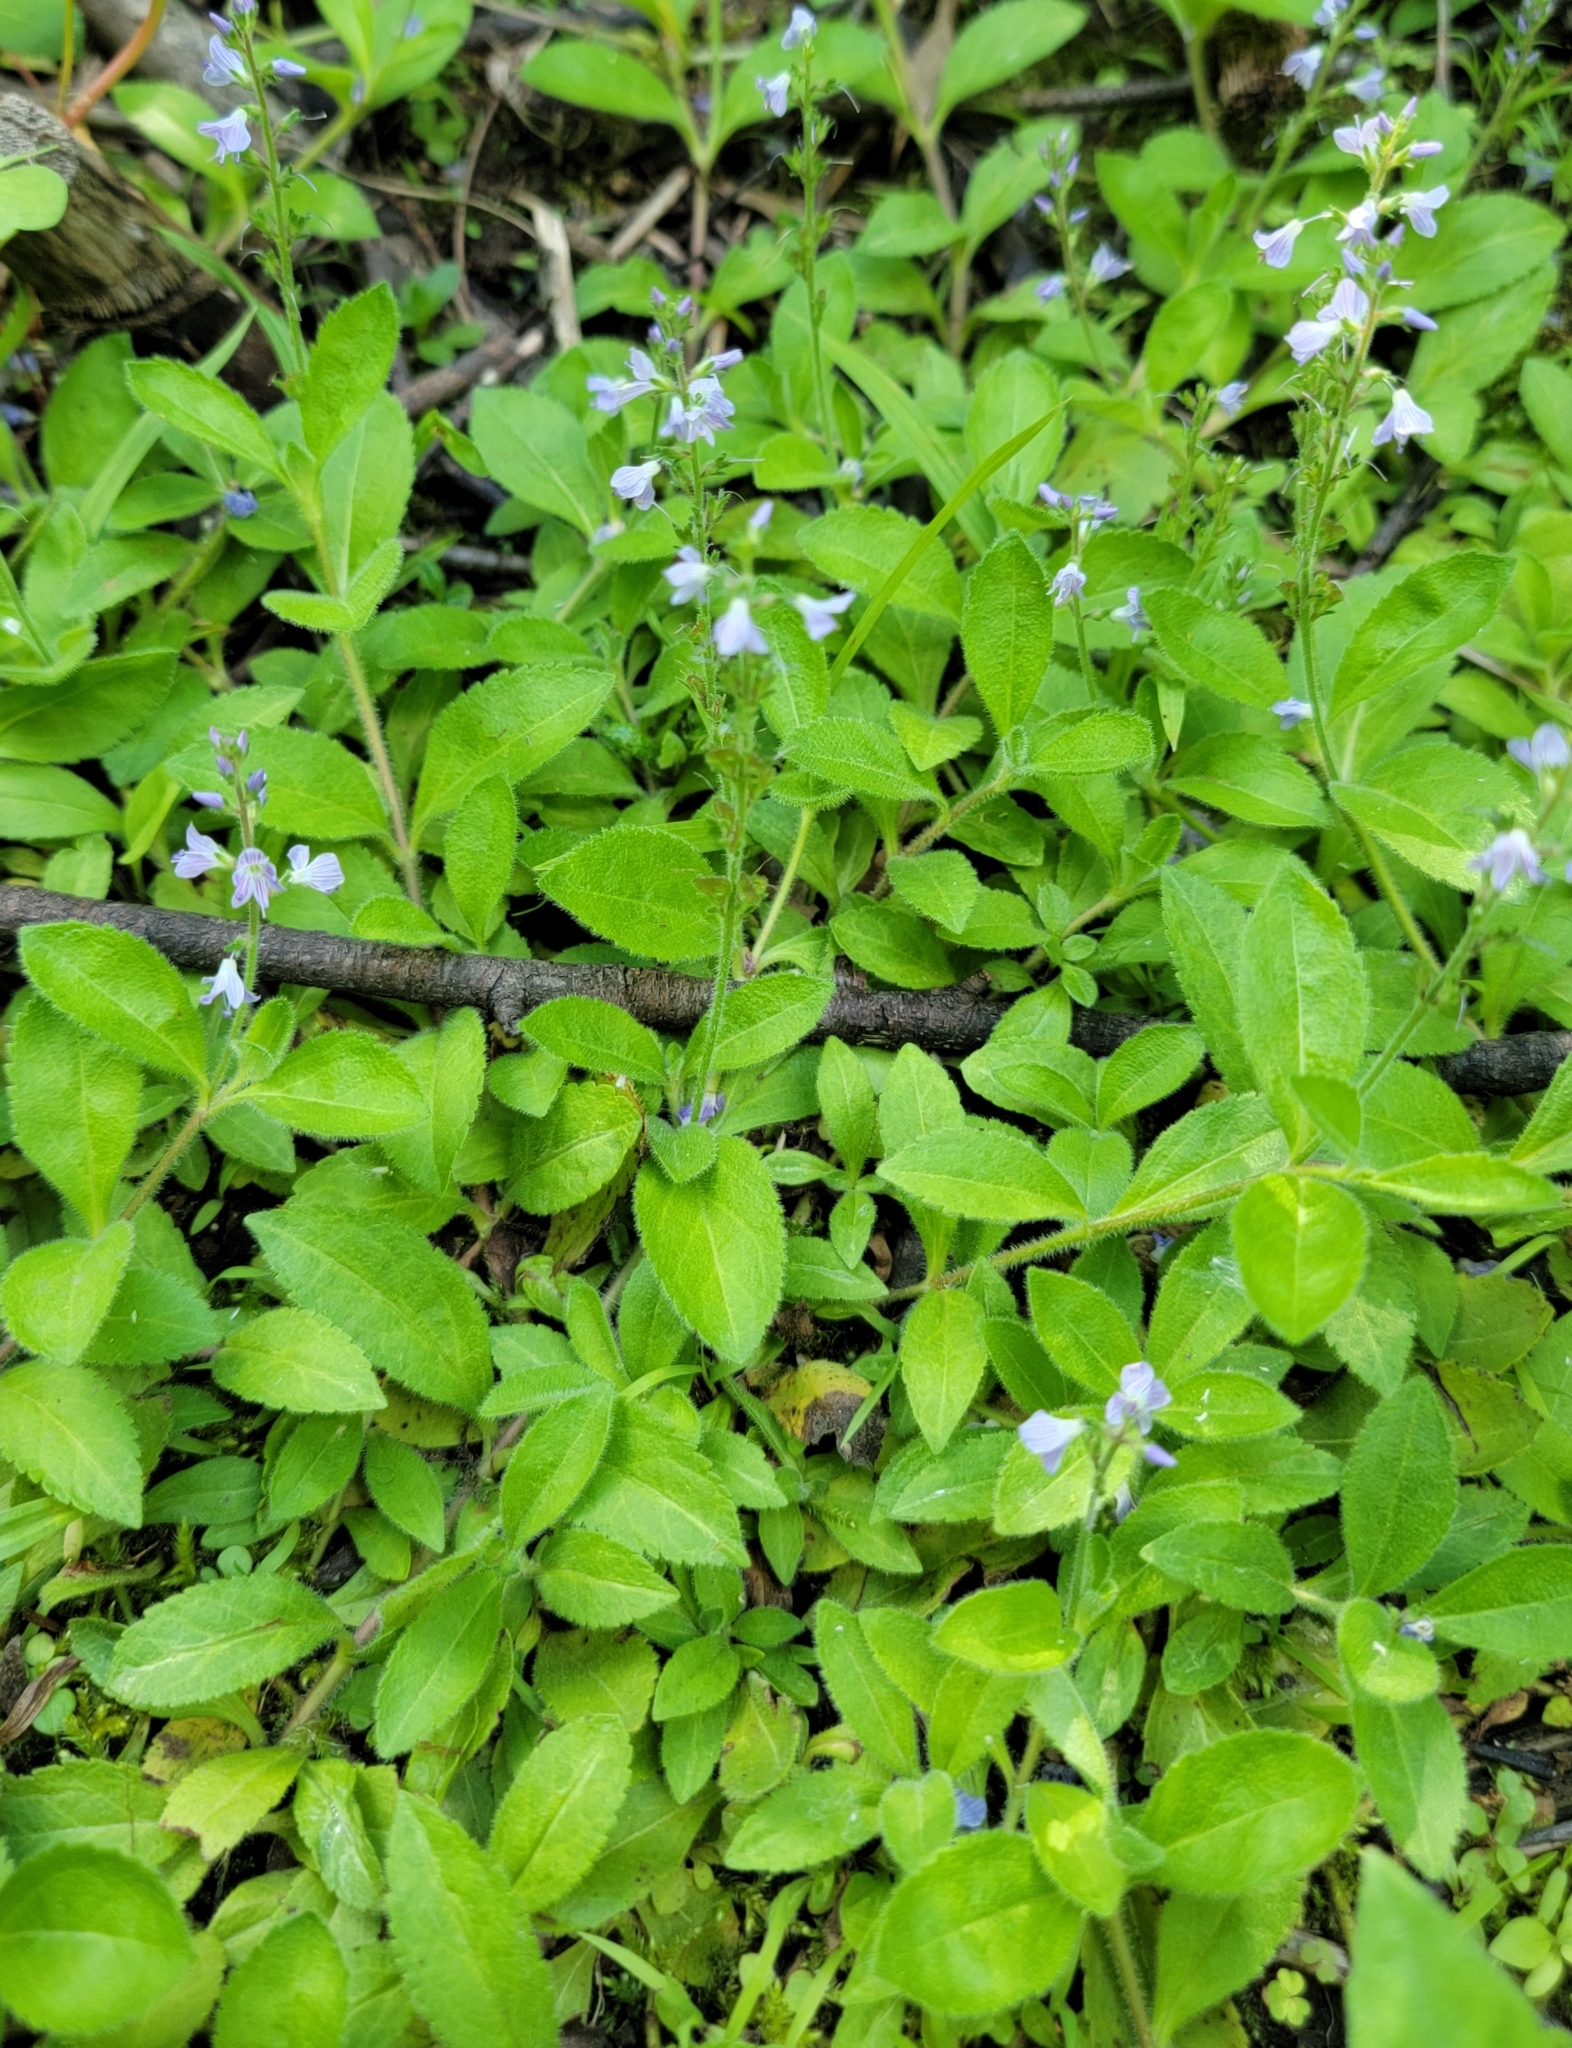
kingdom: Plantae
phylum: Tracheophyta
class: Magnoliopsida
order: Lamiales
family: Plantaginaceae
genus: Veronica
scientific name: Veronica officinalis
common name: Common speedwell
